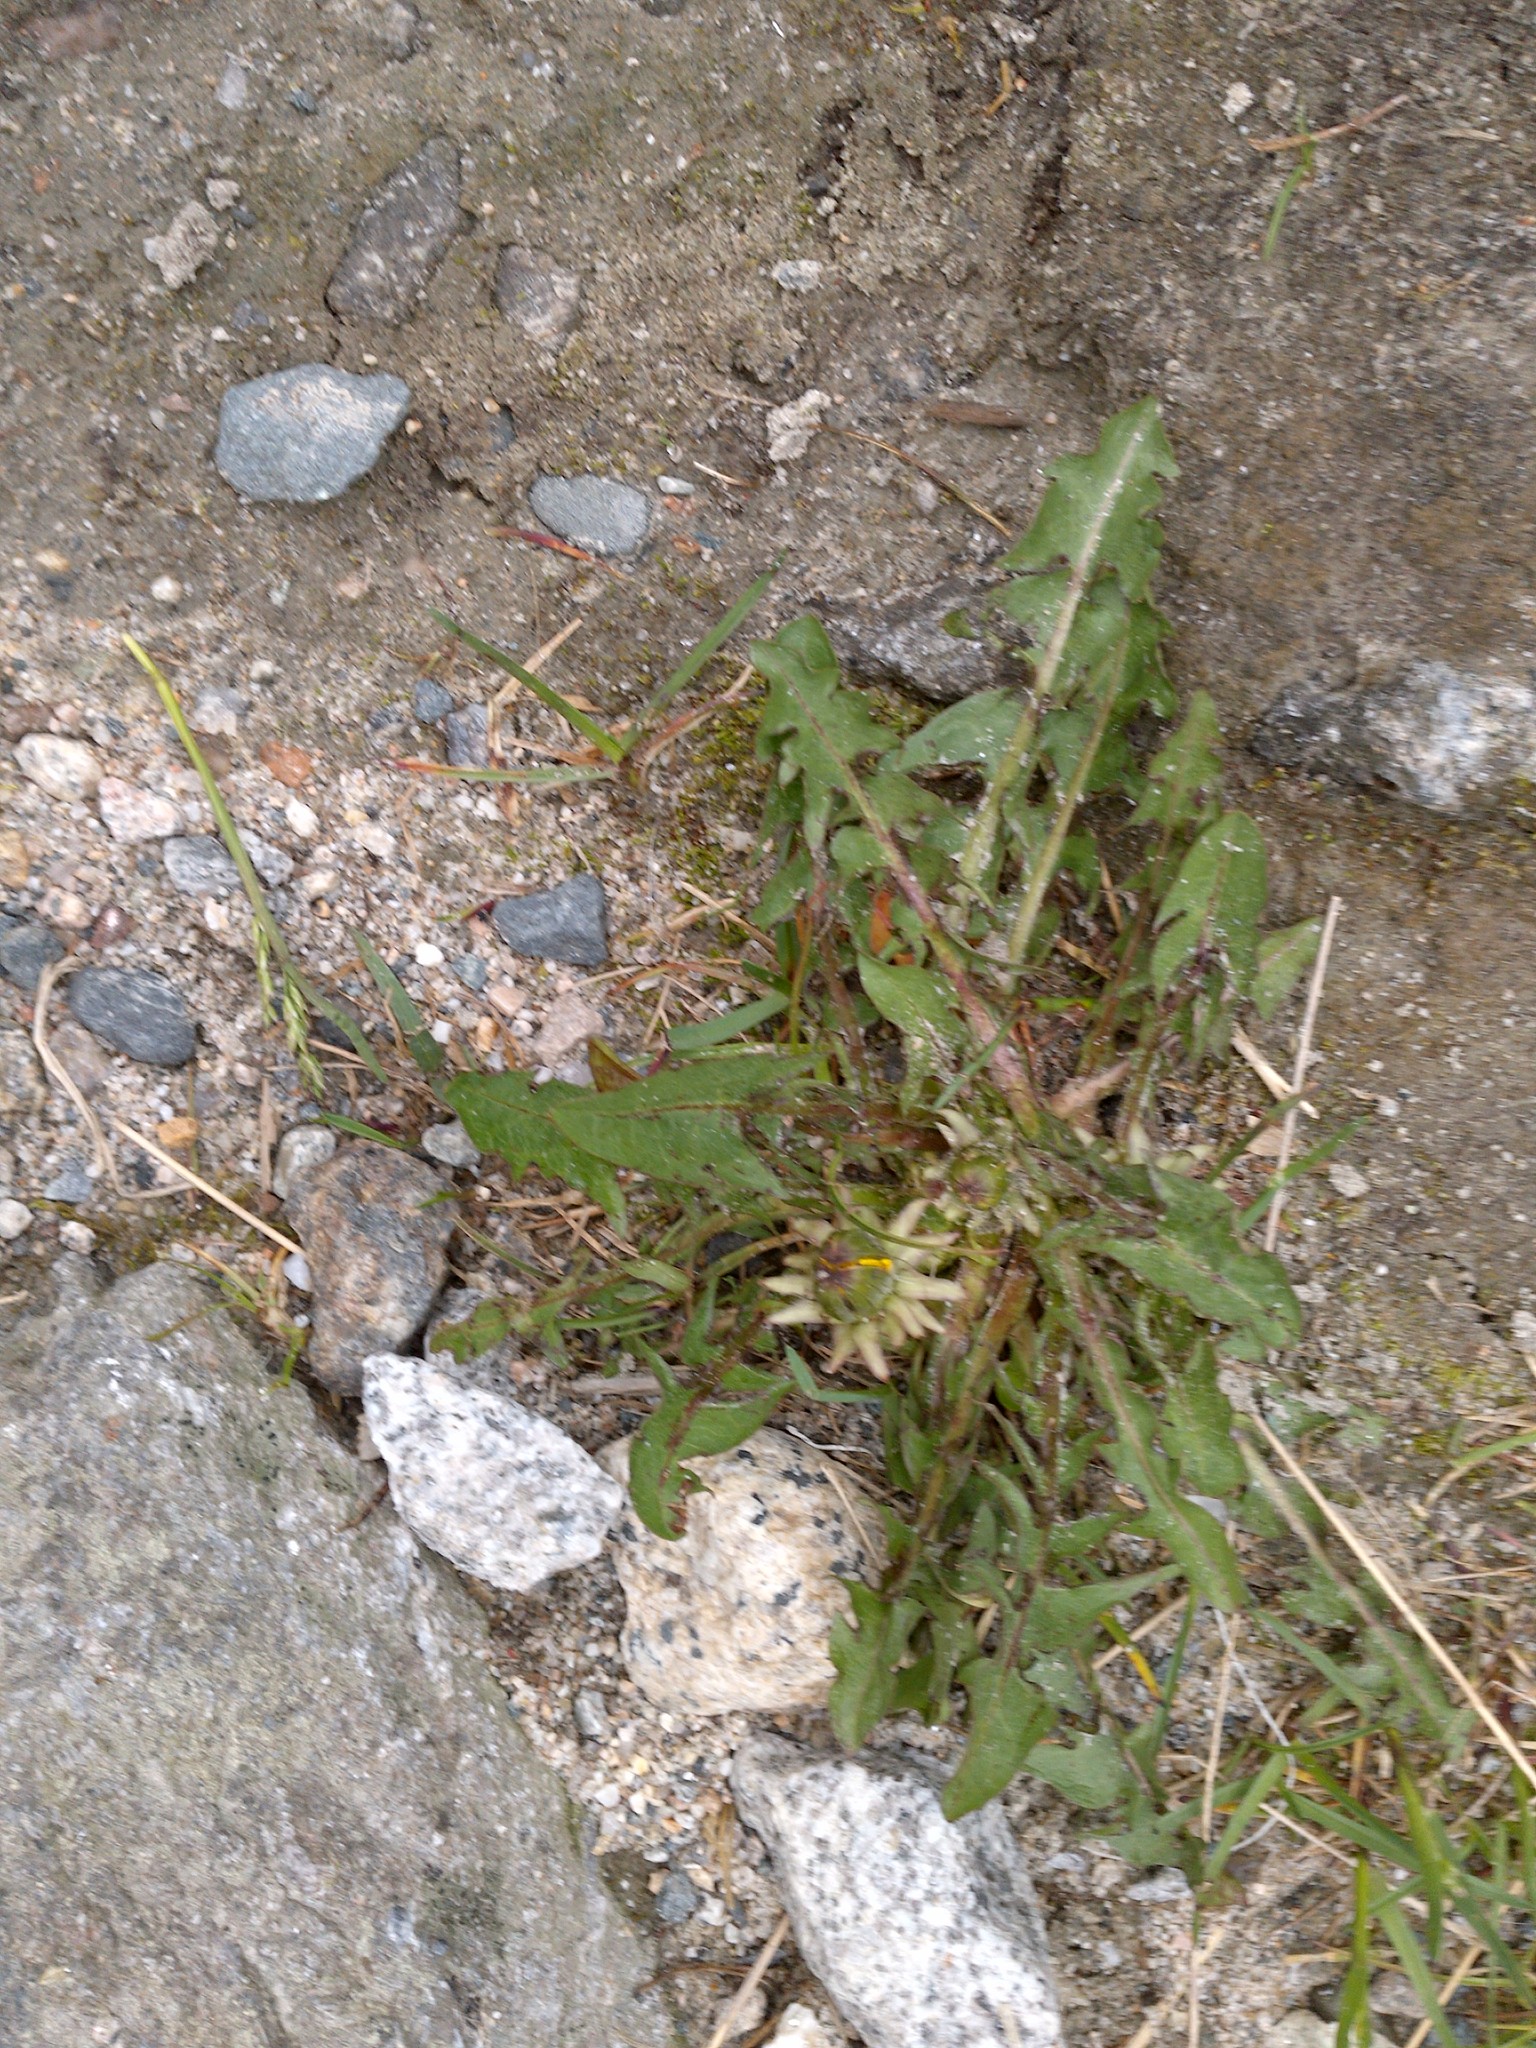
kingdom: Plantae
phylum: Tracheophyta
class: Magnoliopsida
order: Asterales
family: Asteraceae
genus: Taraxacum
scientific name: Taraxacum officinale
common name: Common dandelion
